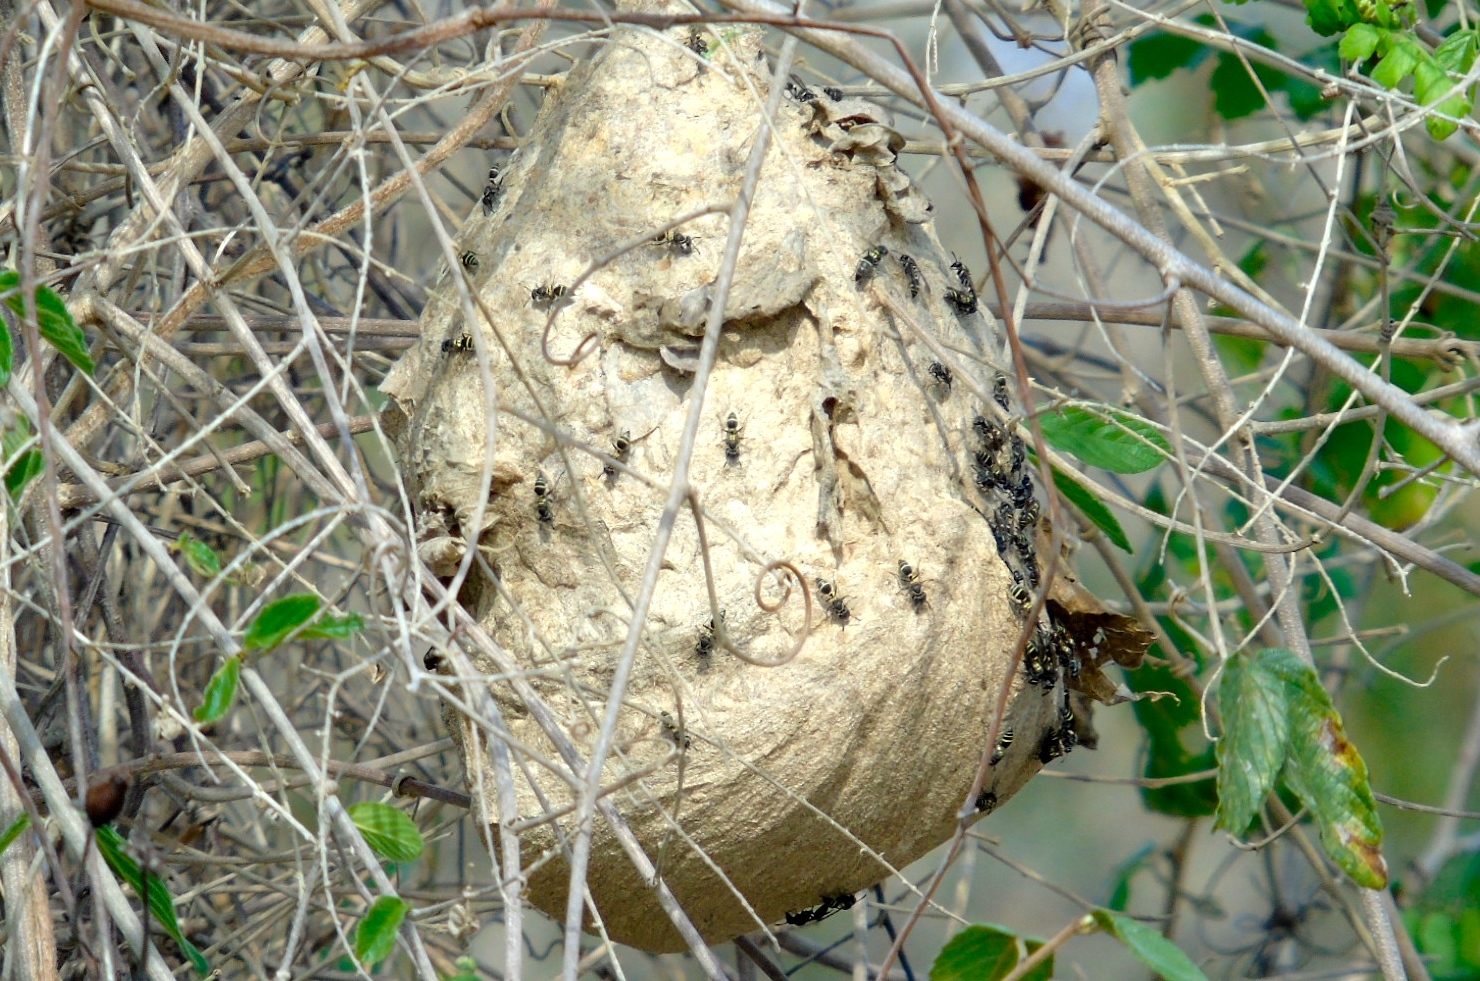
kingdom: Animalia
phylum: Arthropoda
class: Insecta
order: Hymenoptera
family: Vespidae
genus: Myrapetra
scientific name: Myrapetra
